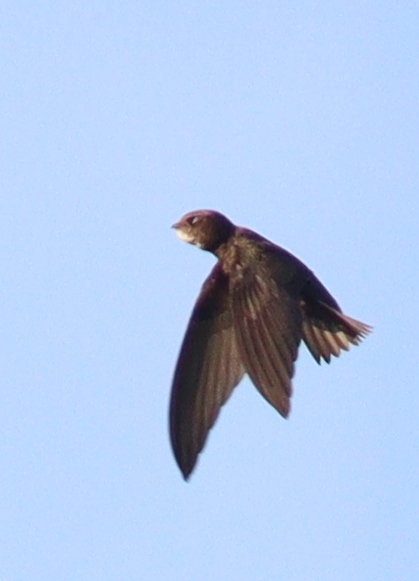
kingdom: Animalia
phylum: Chordata
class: Aves
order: Apodiformes
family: Apodidae
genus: Apus
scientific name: Apus apus
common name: Common swift
